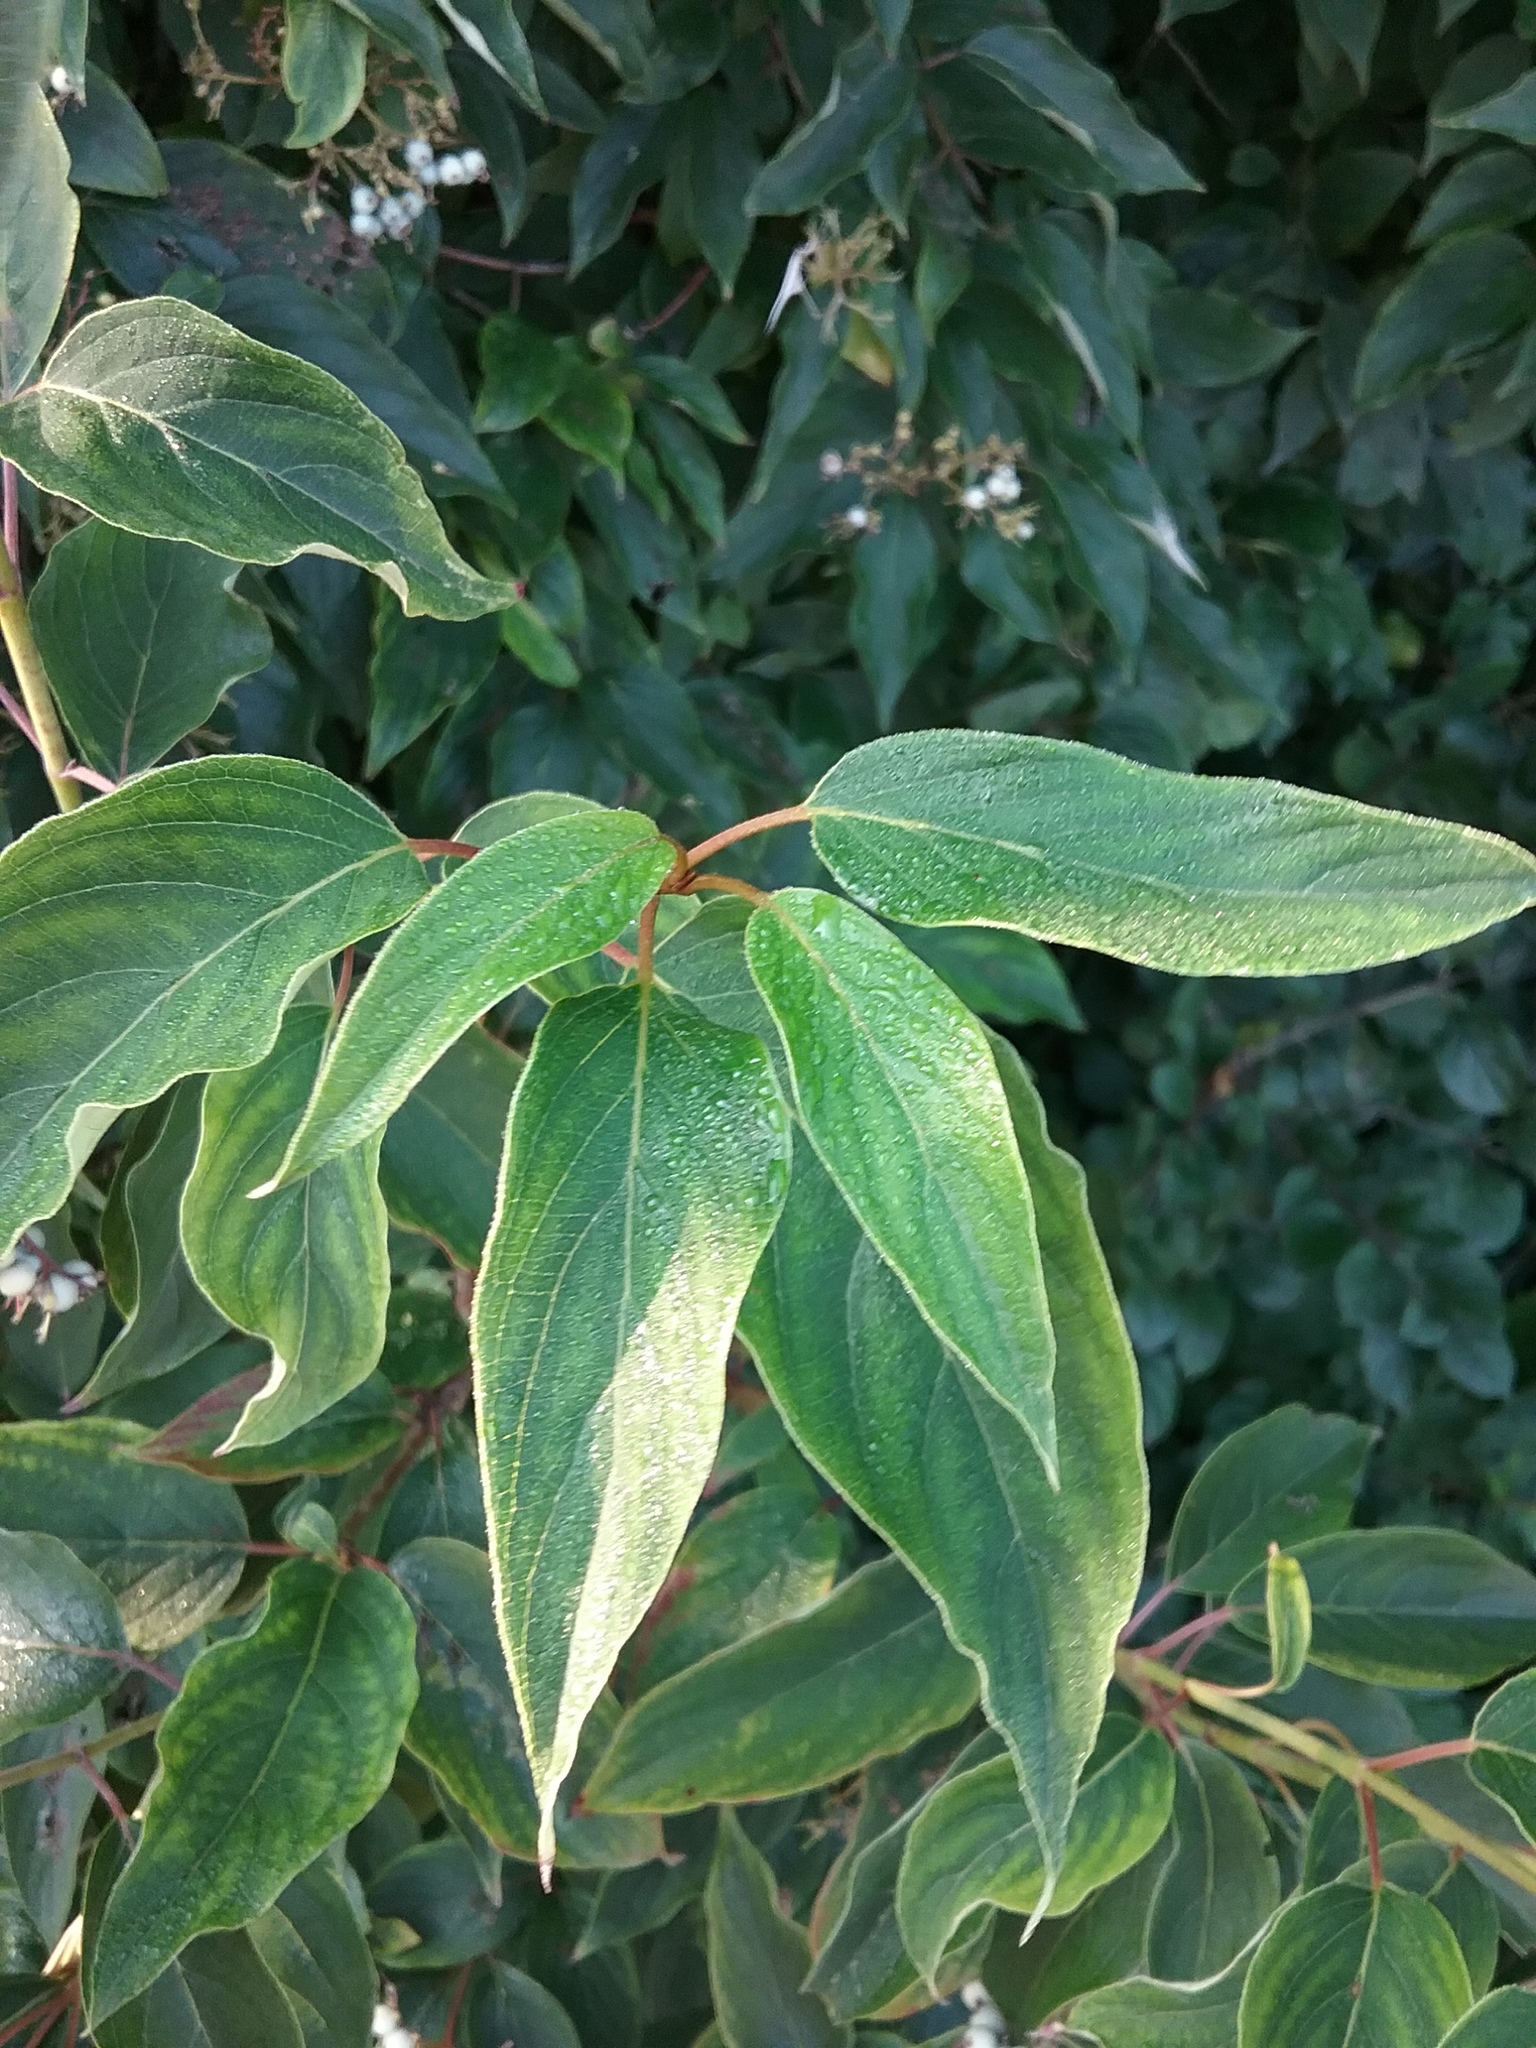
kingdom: Plantae
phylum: Tracheophyta
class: Magnoliopsida
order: Cornales
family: Cornaceae
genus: Cornus
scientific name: Cornus racemosa
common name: Panicled dogwood
